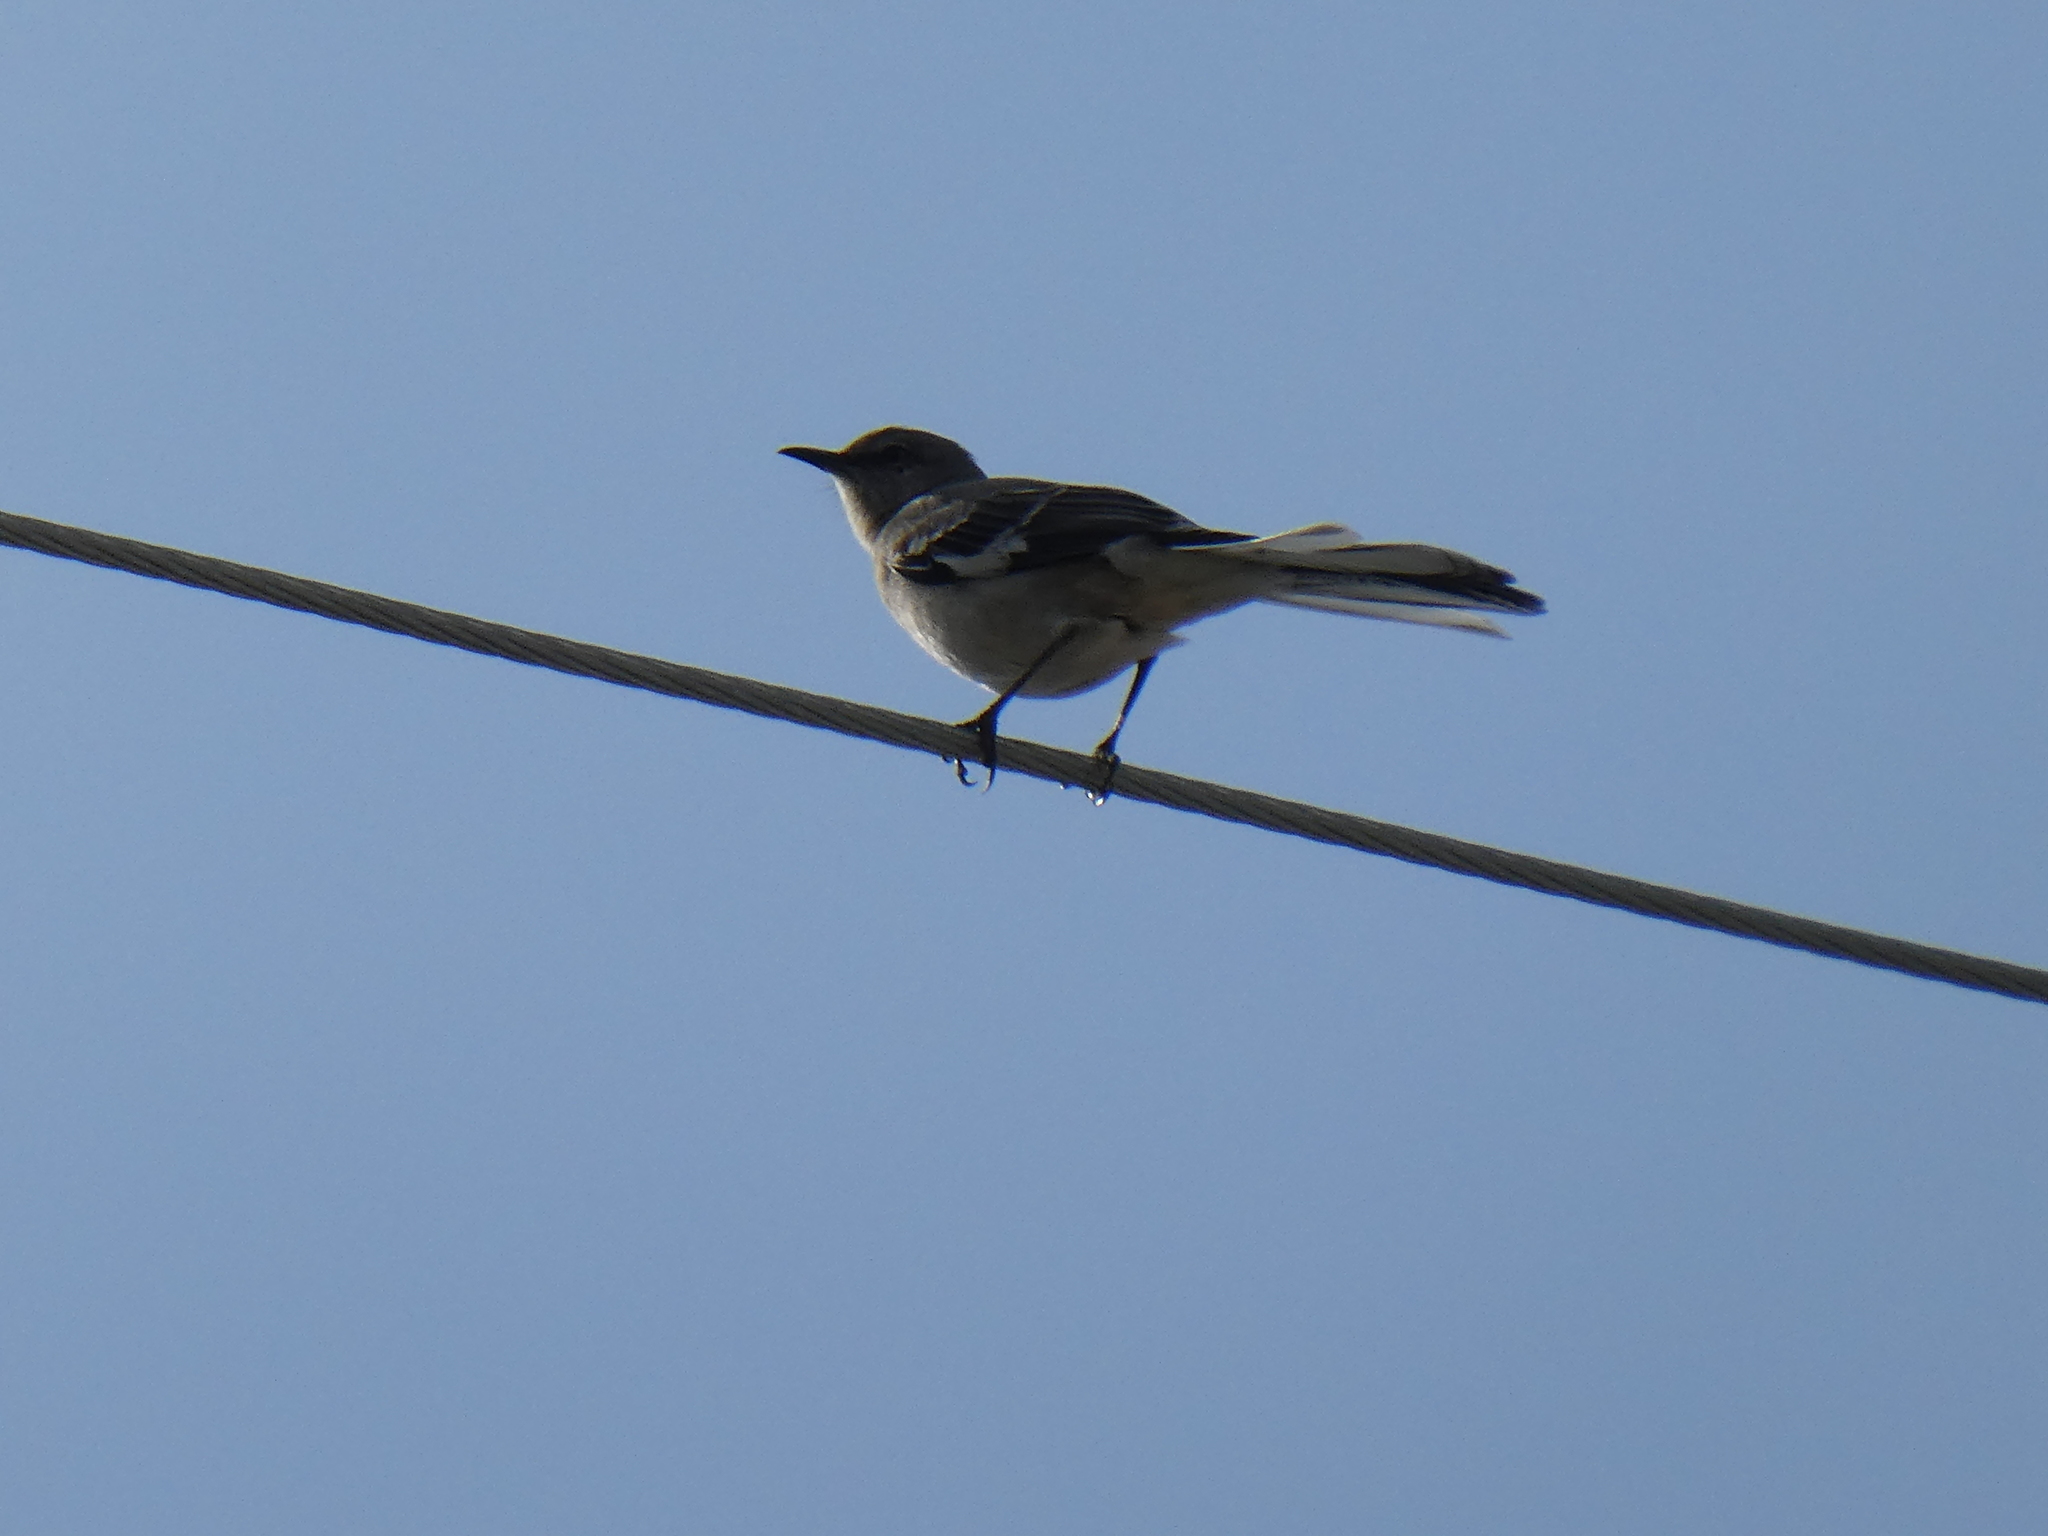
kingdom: Animalia
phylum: Chordata
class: Aves
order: Passeriformes
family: Mimidae
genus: Mimus
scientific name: Mimus polyglottos
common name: Northern mockingbird
